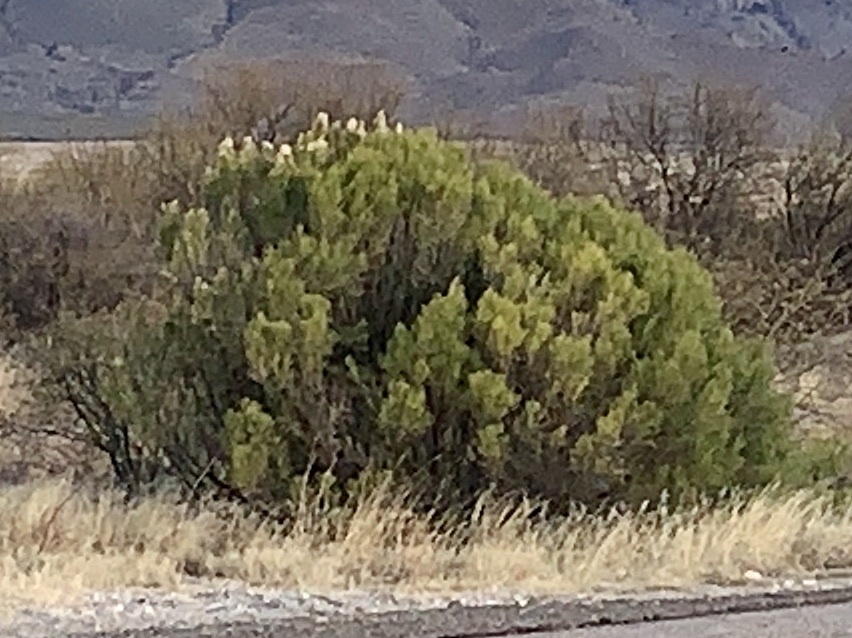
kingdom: Plantae
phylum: Tracheophyta
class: Magnoliopsida
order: Asterales
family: Asteraceae
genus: Baccharis
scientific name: Baccharis sarothroides
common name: Desert-broom
